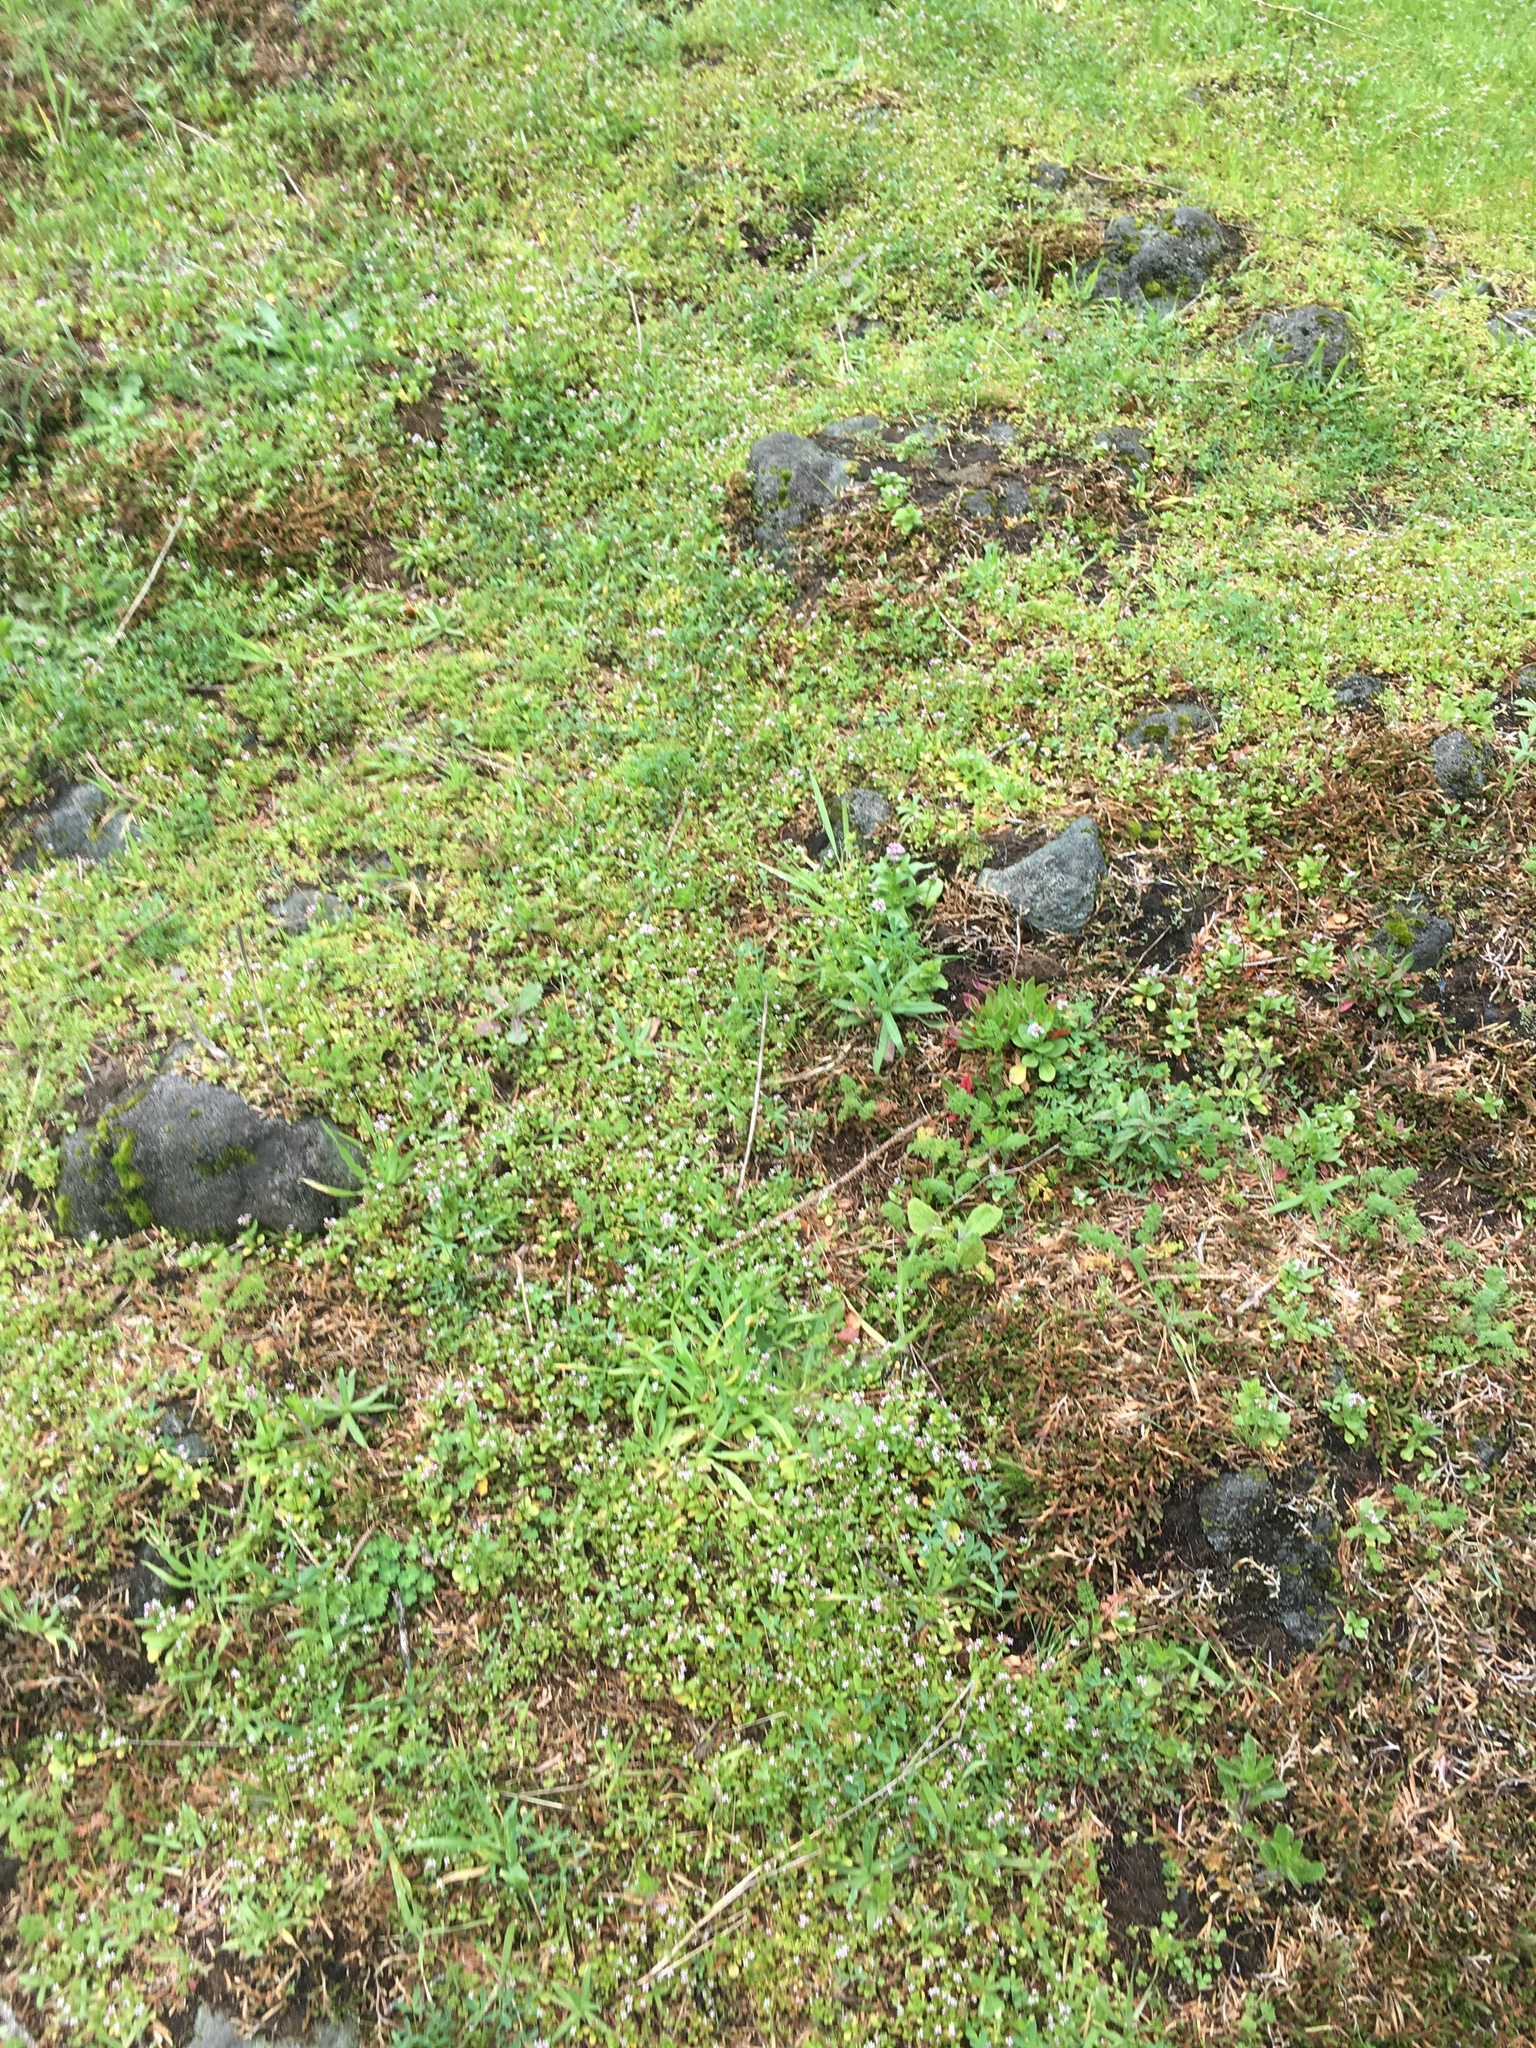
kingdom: Plantae
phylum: Tracheophyta
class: Magnoliopsida
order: Dipsacales
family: Caprifoliaceae
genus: Plectritis
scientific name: Plectritis brachystemon
